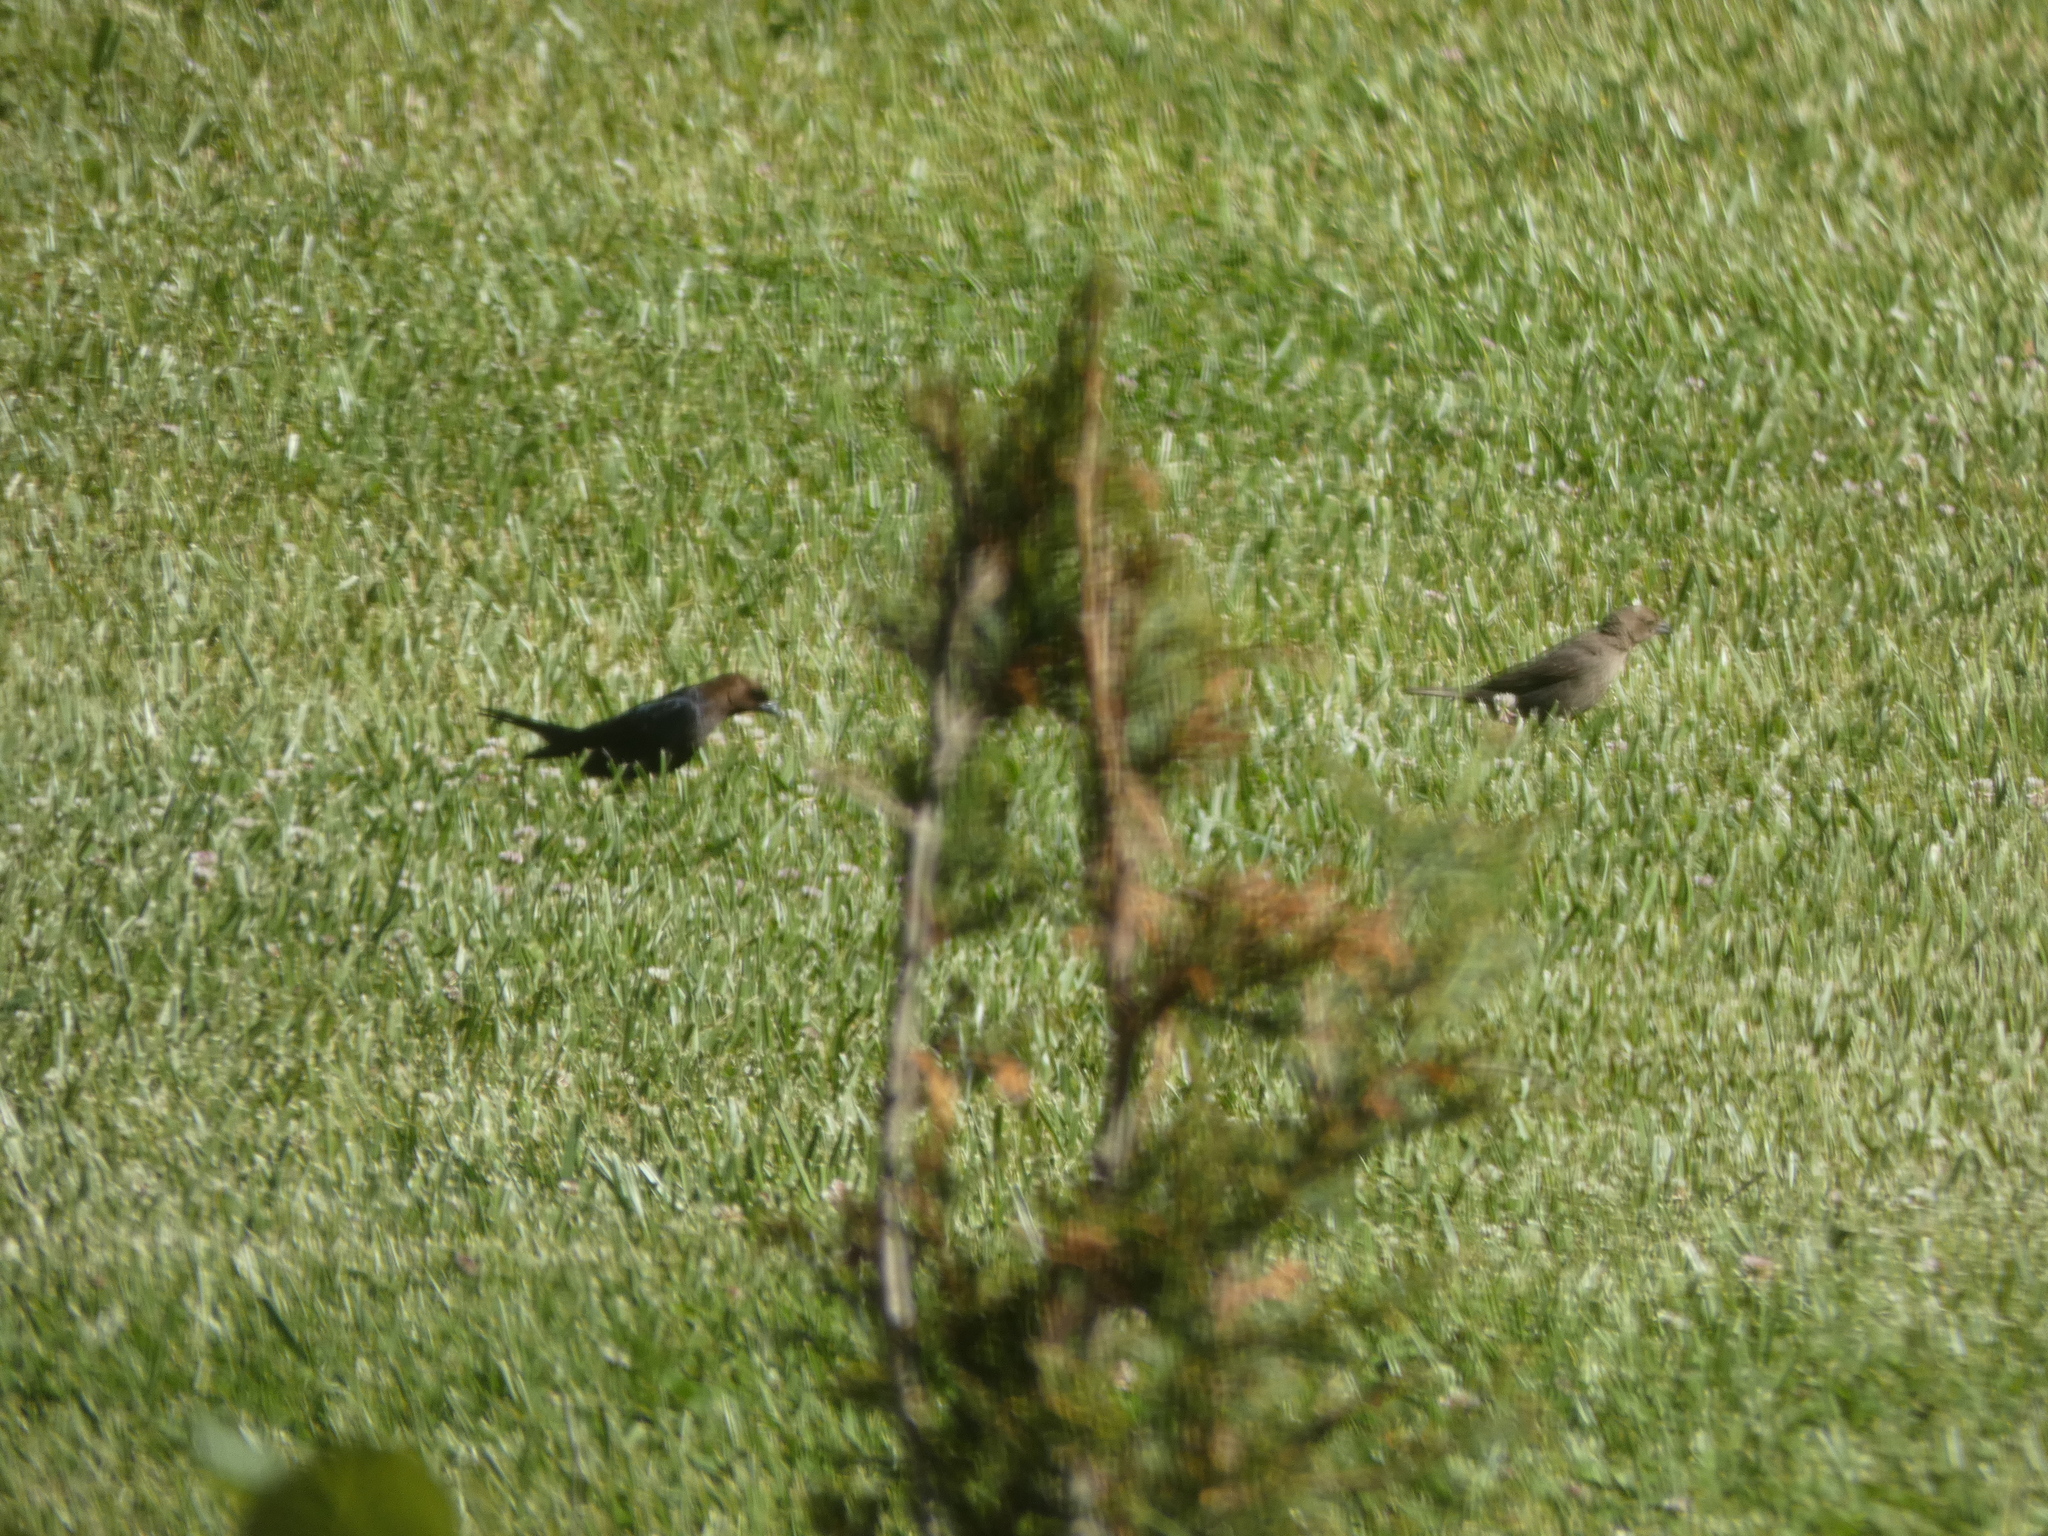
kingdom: Animalia
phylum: Chordata
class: Aves
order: Passeriformes
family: Icteridae
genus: Molothrus
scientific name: Molothrus ater
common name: Brown-headed cowbird
